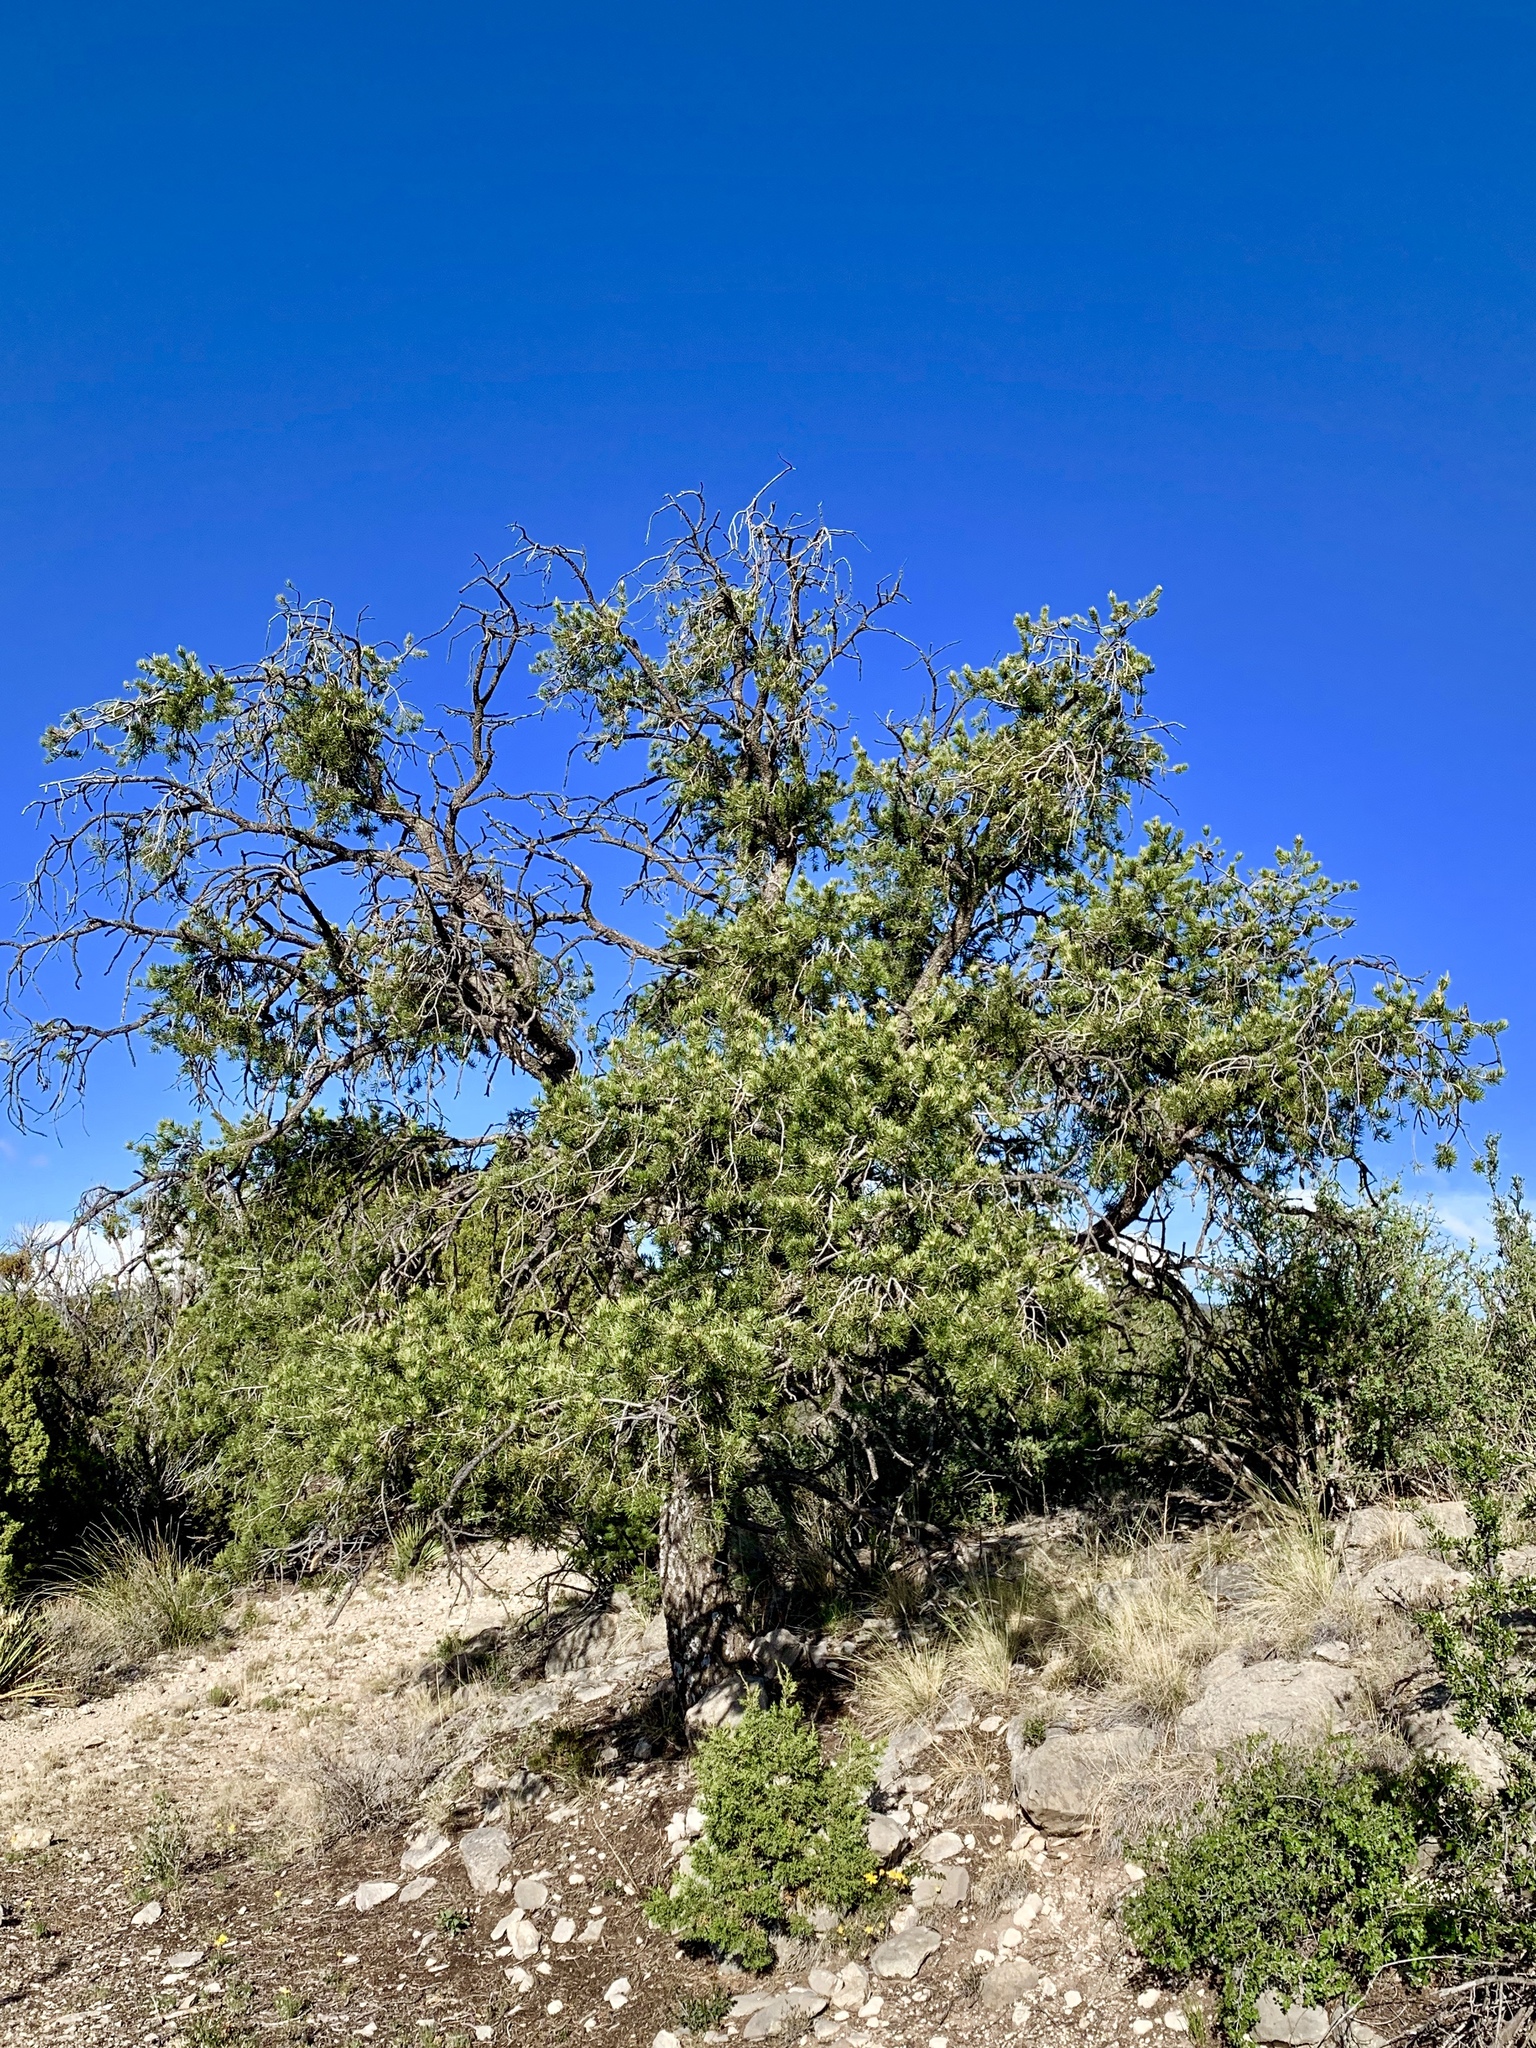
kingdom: Plantae
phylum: Tracheophyta
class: Pinopsida
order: Pinales
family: Pinaceae
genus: Pinus
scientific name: Pinus edulis
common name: Colorado pinyon
